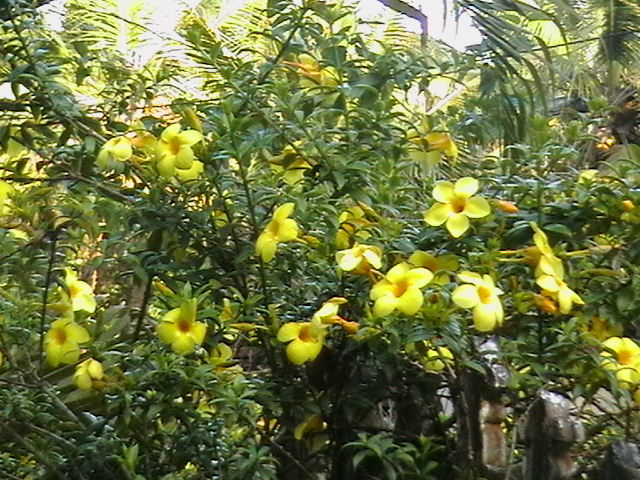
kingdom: Plantae
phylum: Tracheophyta
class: Magnoliopsida
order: Gentianales
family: Apocynaceae
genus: Allamanda
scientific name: Allamanda cathartica
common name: Golden trumpet
